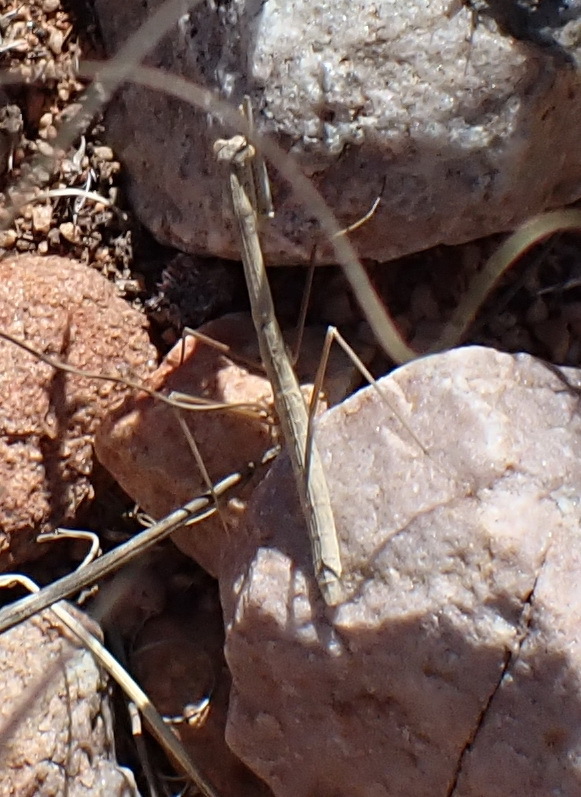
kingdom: Animalia
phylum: Arthropoda
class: Insecta
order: Mantodea
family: Hoplocoryphidae
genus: Hoplocorypha
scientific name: Hoplocorypha macra
